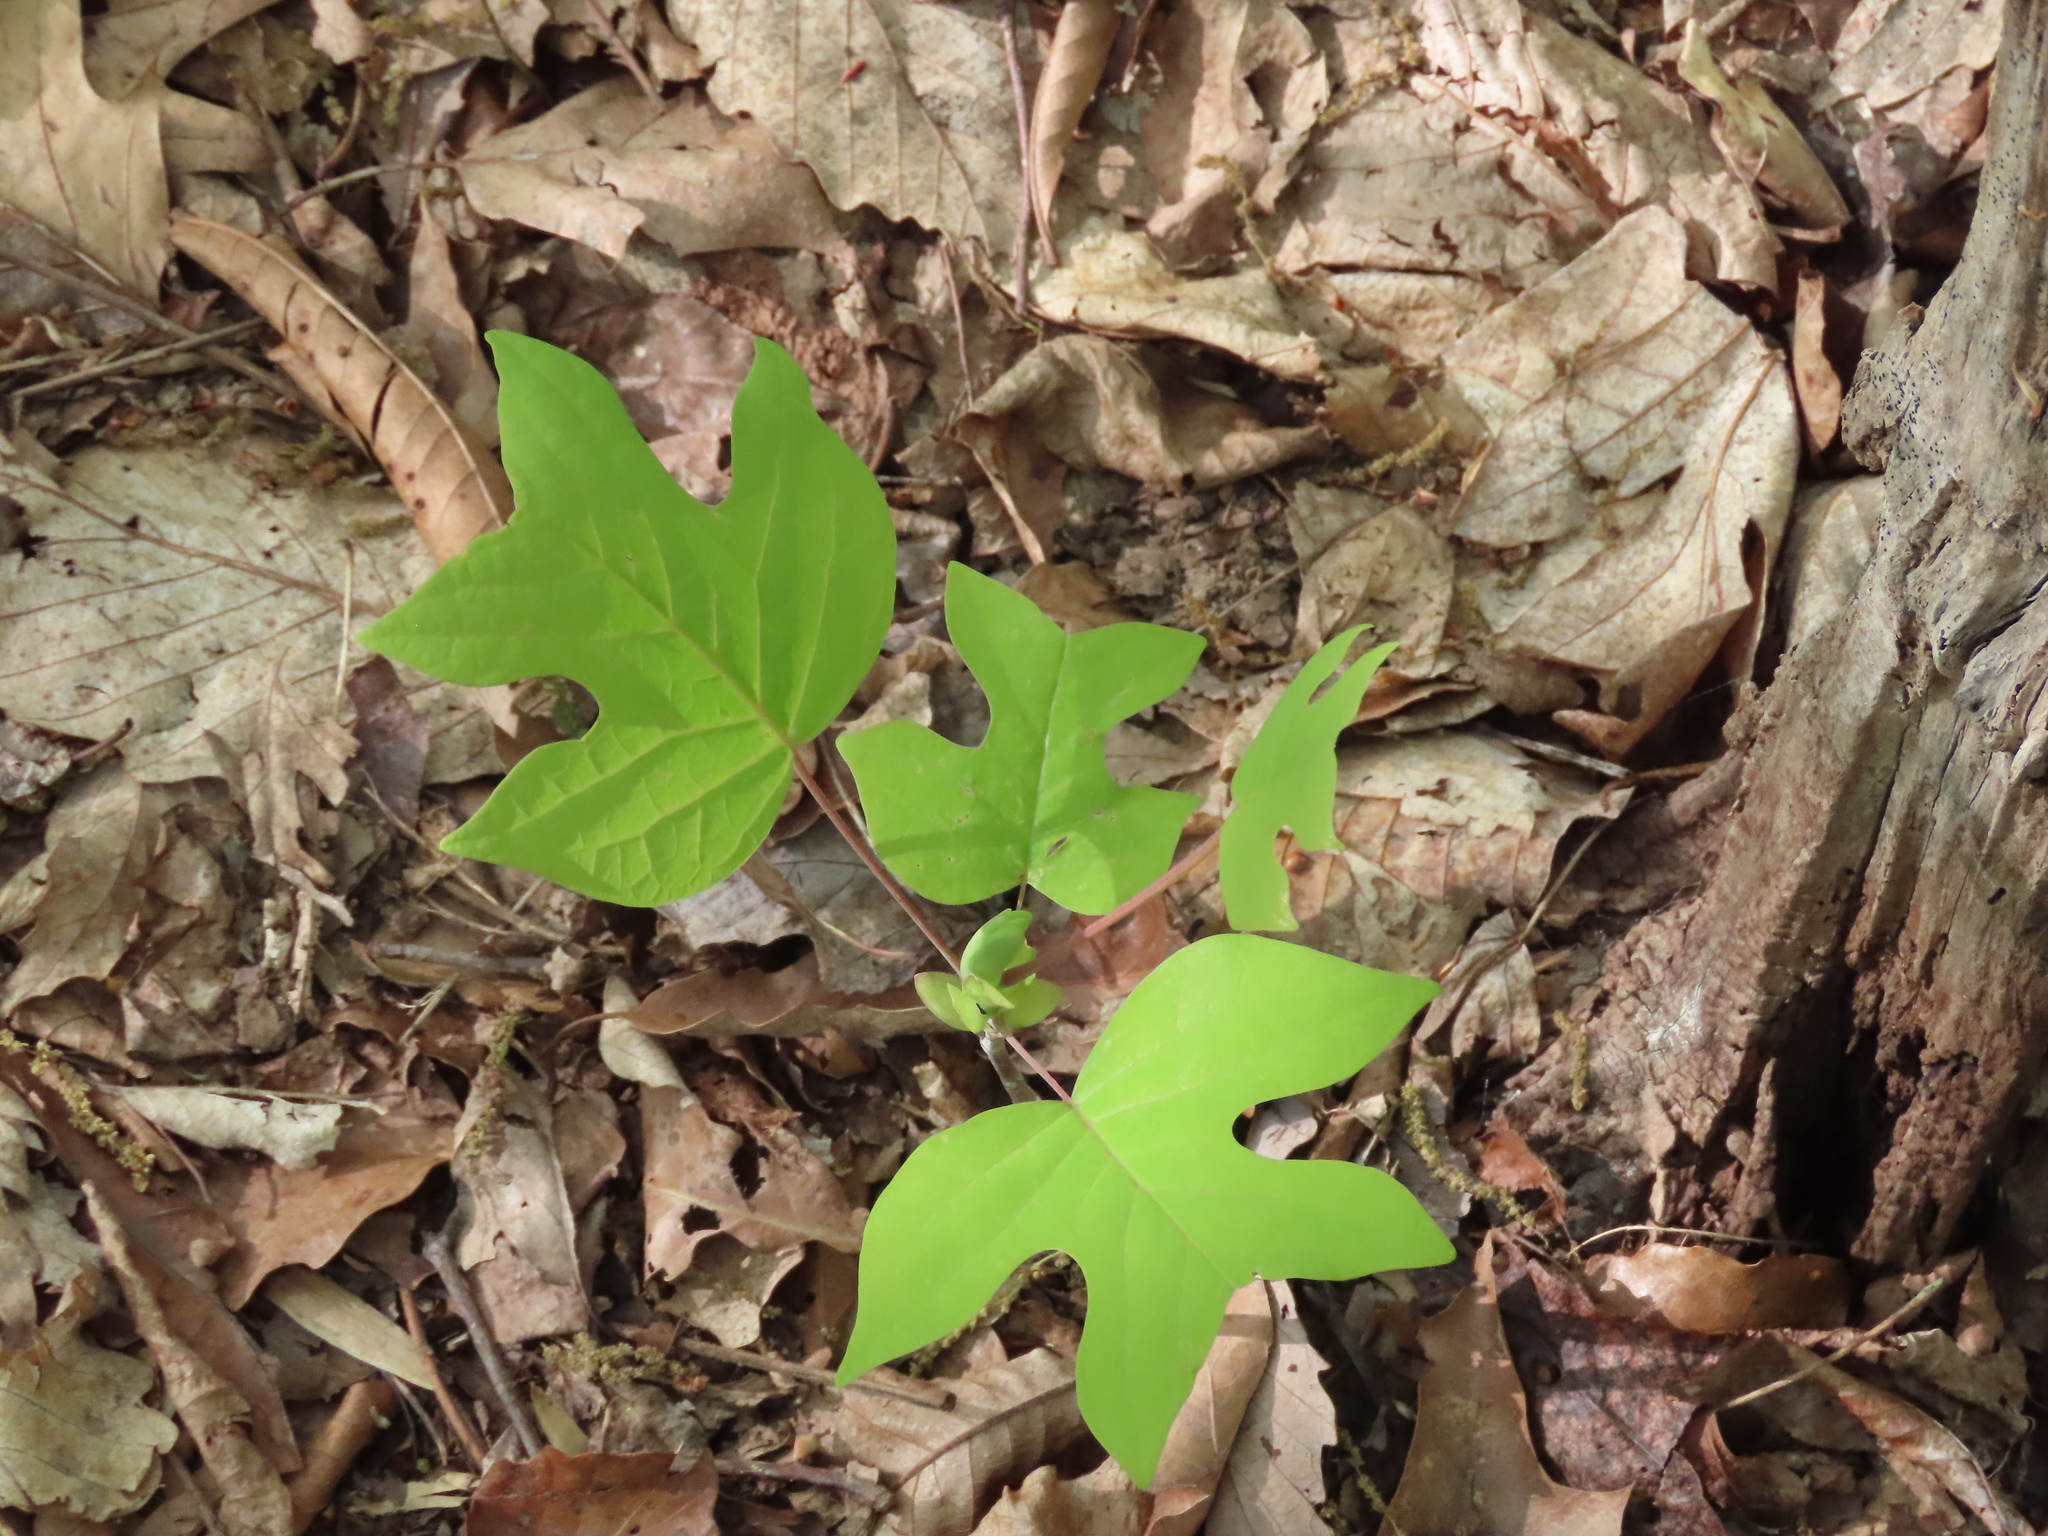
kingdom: Plantae
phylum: Tracheophyta
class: Magnoliopsida
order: Magnoliales
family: Magnoliaceae
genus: Liriodendron
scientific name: Liriodendron tulipifera
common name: Tulip tree
